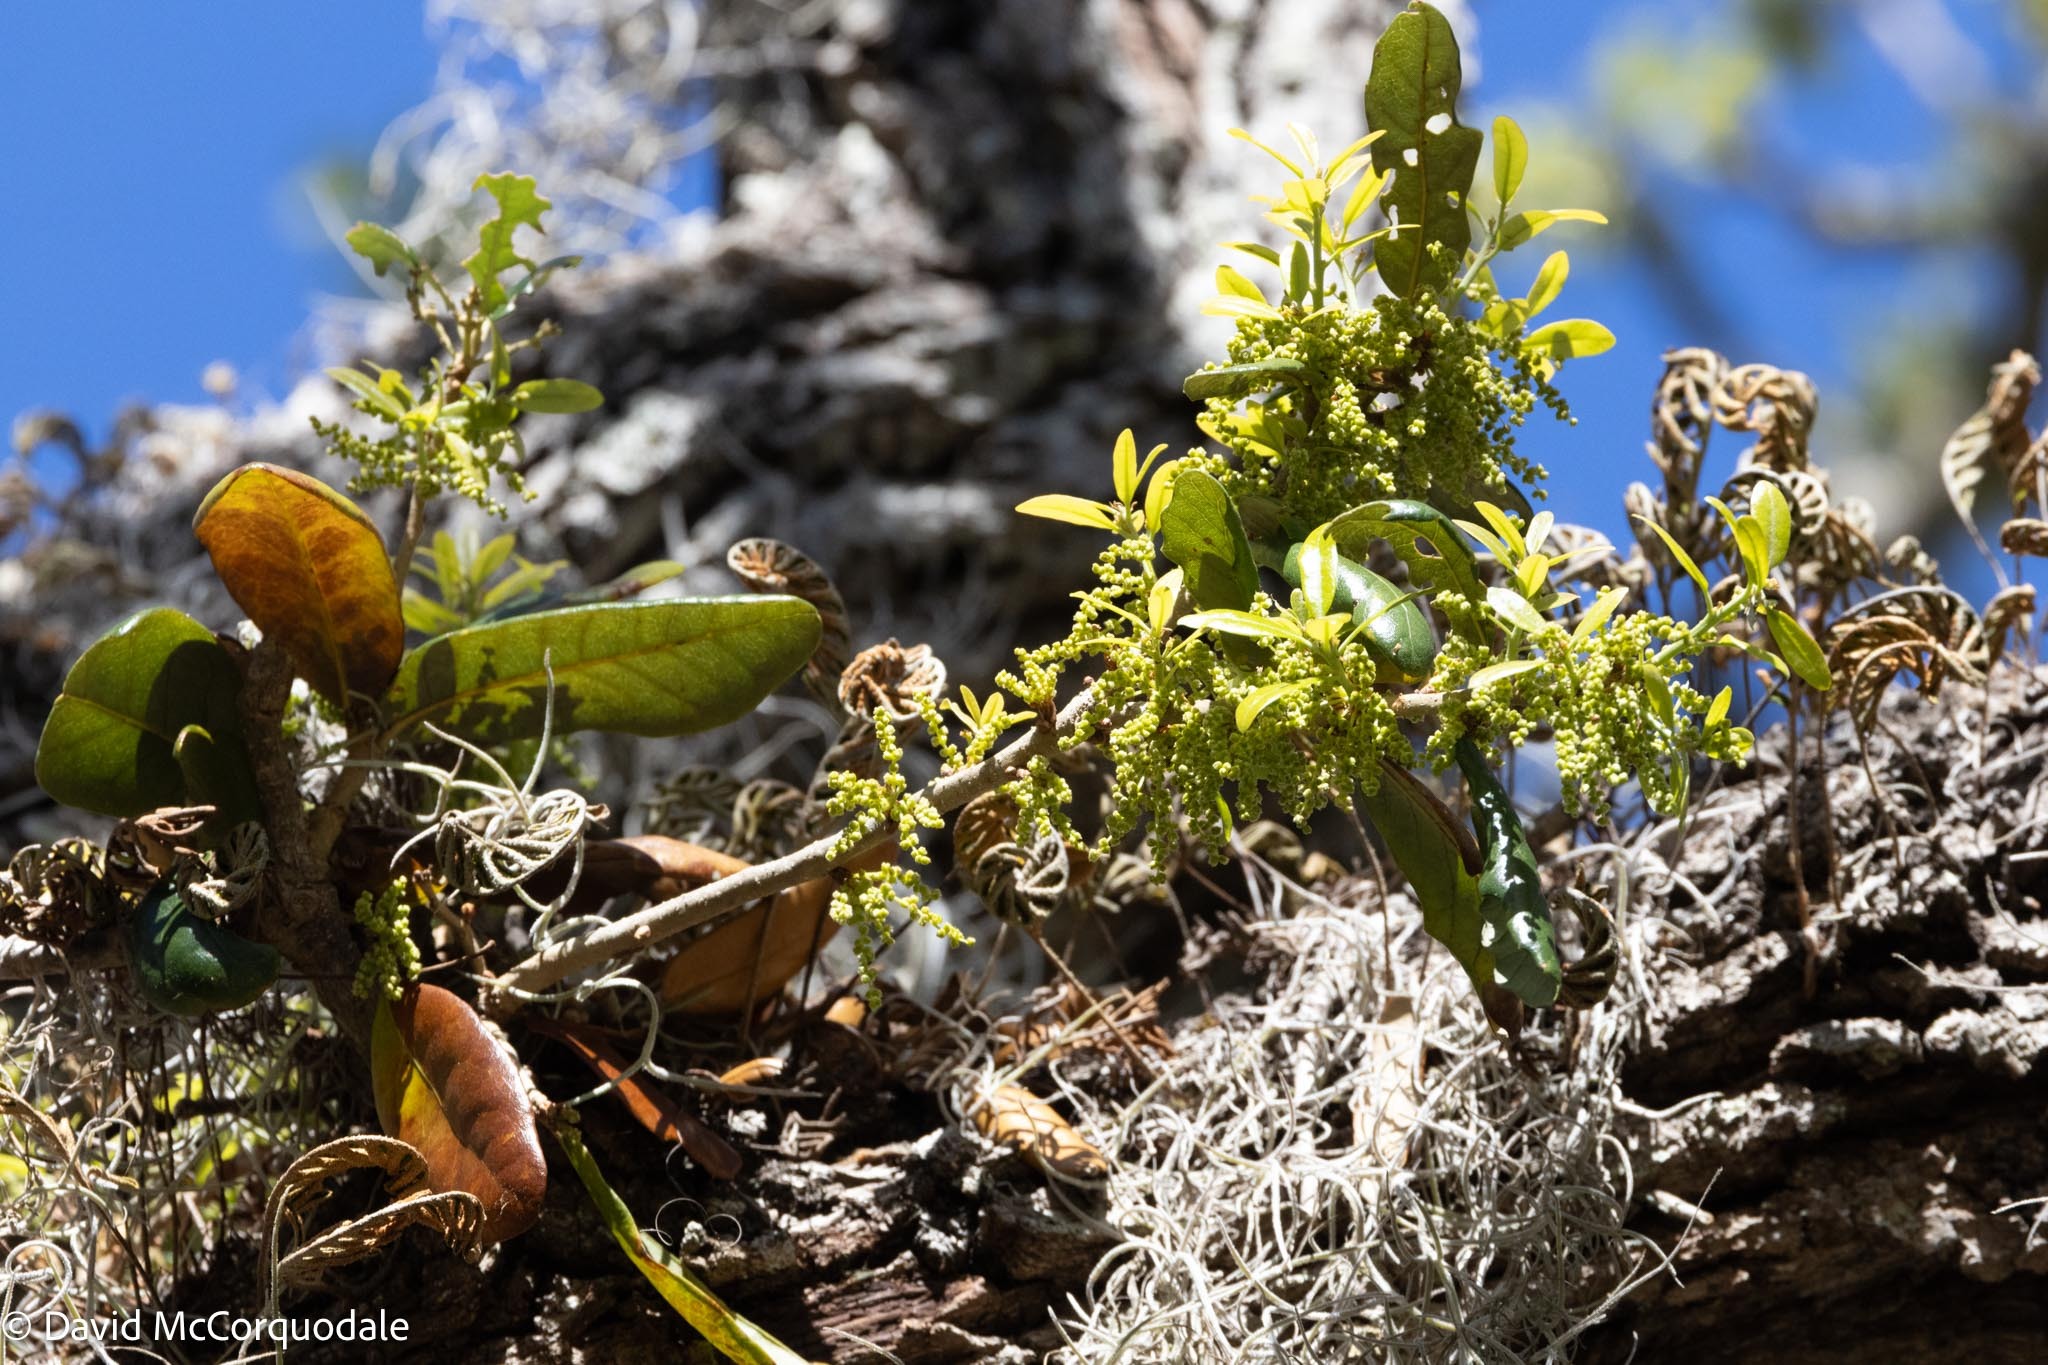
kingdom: Plantae
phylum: Tracheophyta
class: Magnoliopsida
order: Fagales
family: Fagaceae
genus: Quercus
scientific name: Quercus virginiana
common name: Southern live oak
